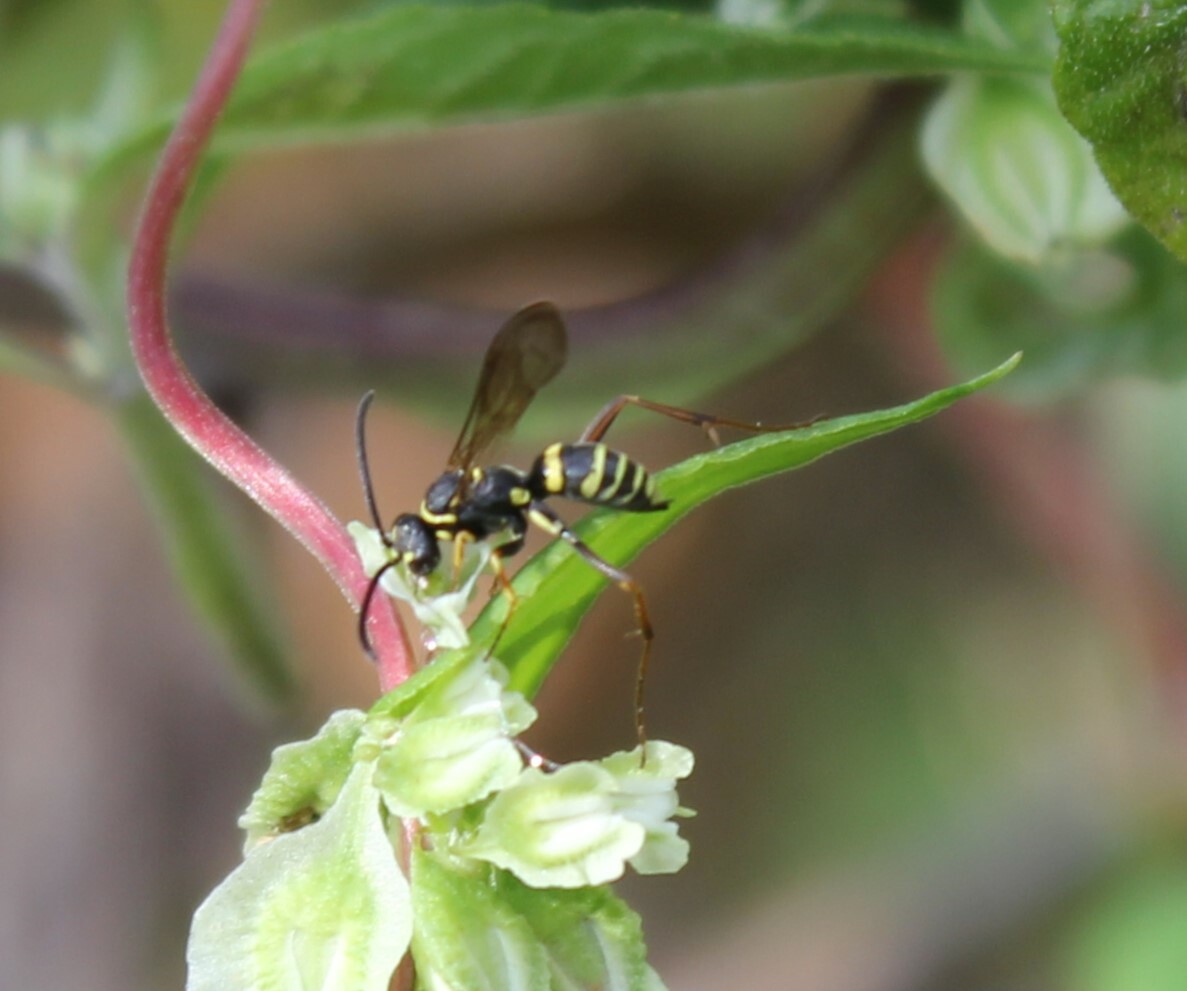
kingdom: Animalia
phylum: Arthropoda
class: Insecta
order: Hymenoptera
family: Pompilidae
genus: Ceropales
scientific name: Ceropales maculata
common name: Spider wasp
